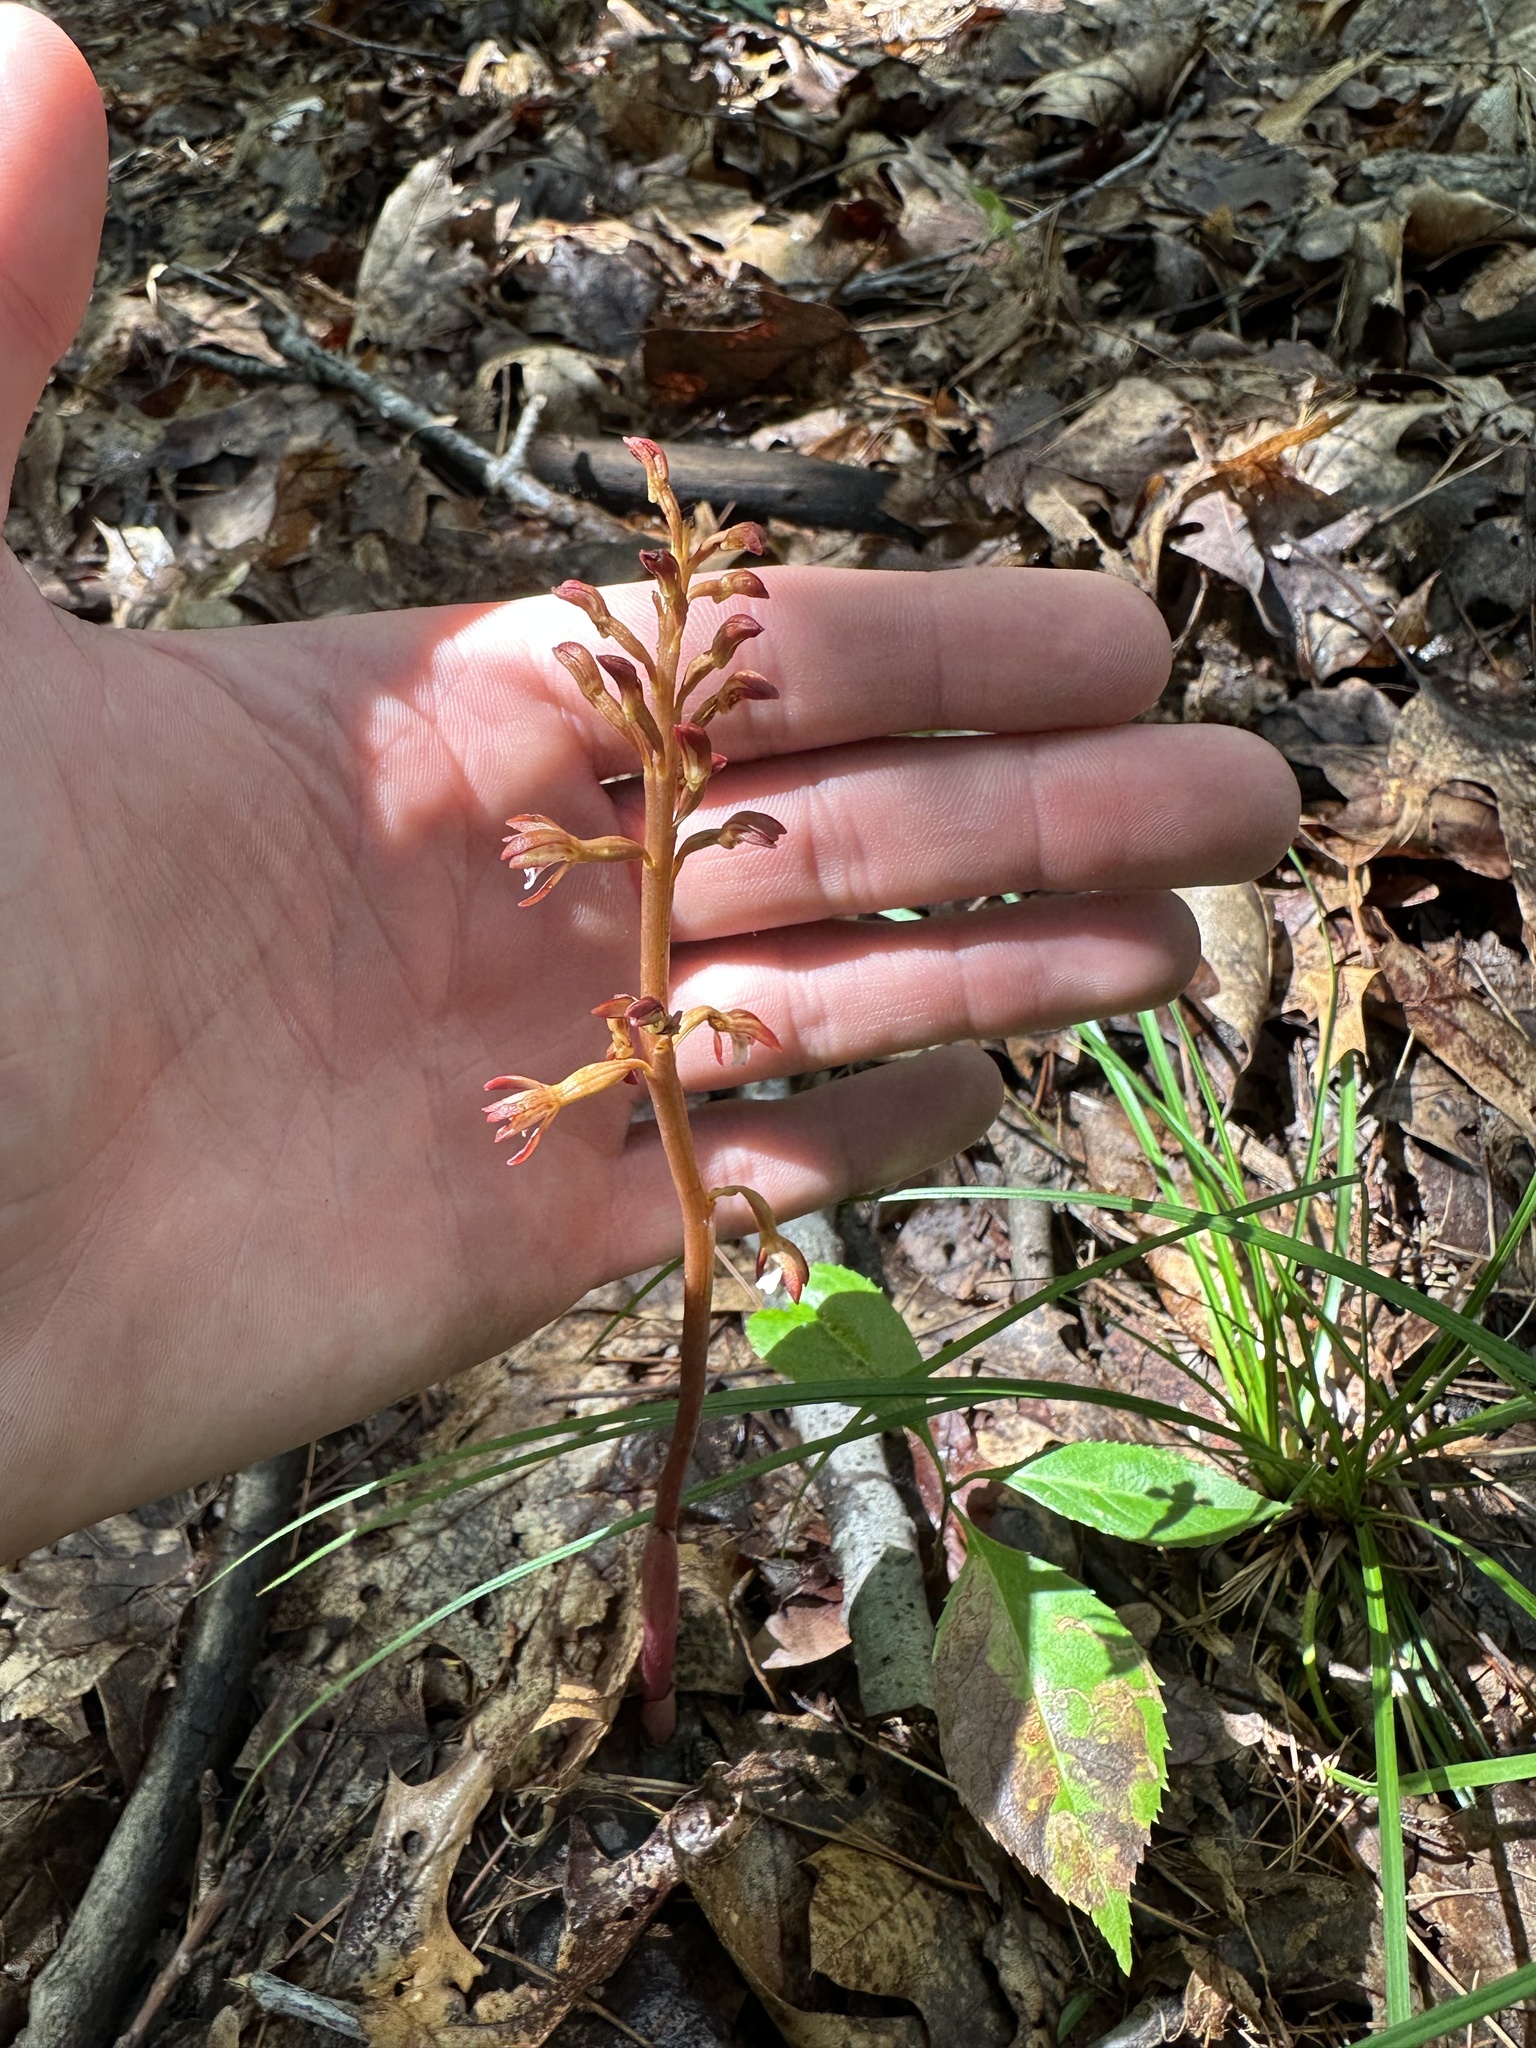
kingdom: Plantae
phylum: Tracheophyta
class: Liliopsida
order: Asparagales
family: Orchidaceae
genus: Corallorhiza
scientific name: Corallorhiza maculata
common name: Spotted coralroot
